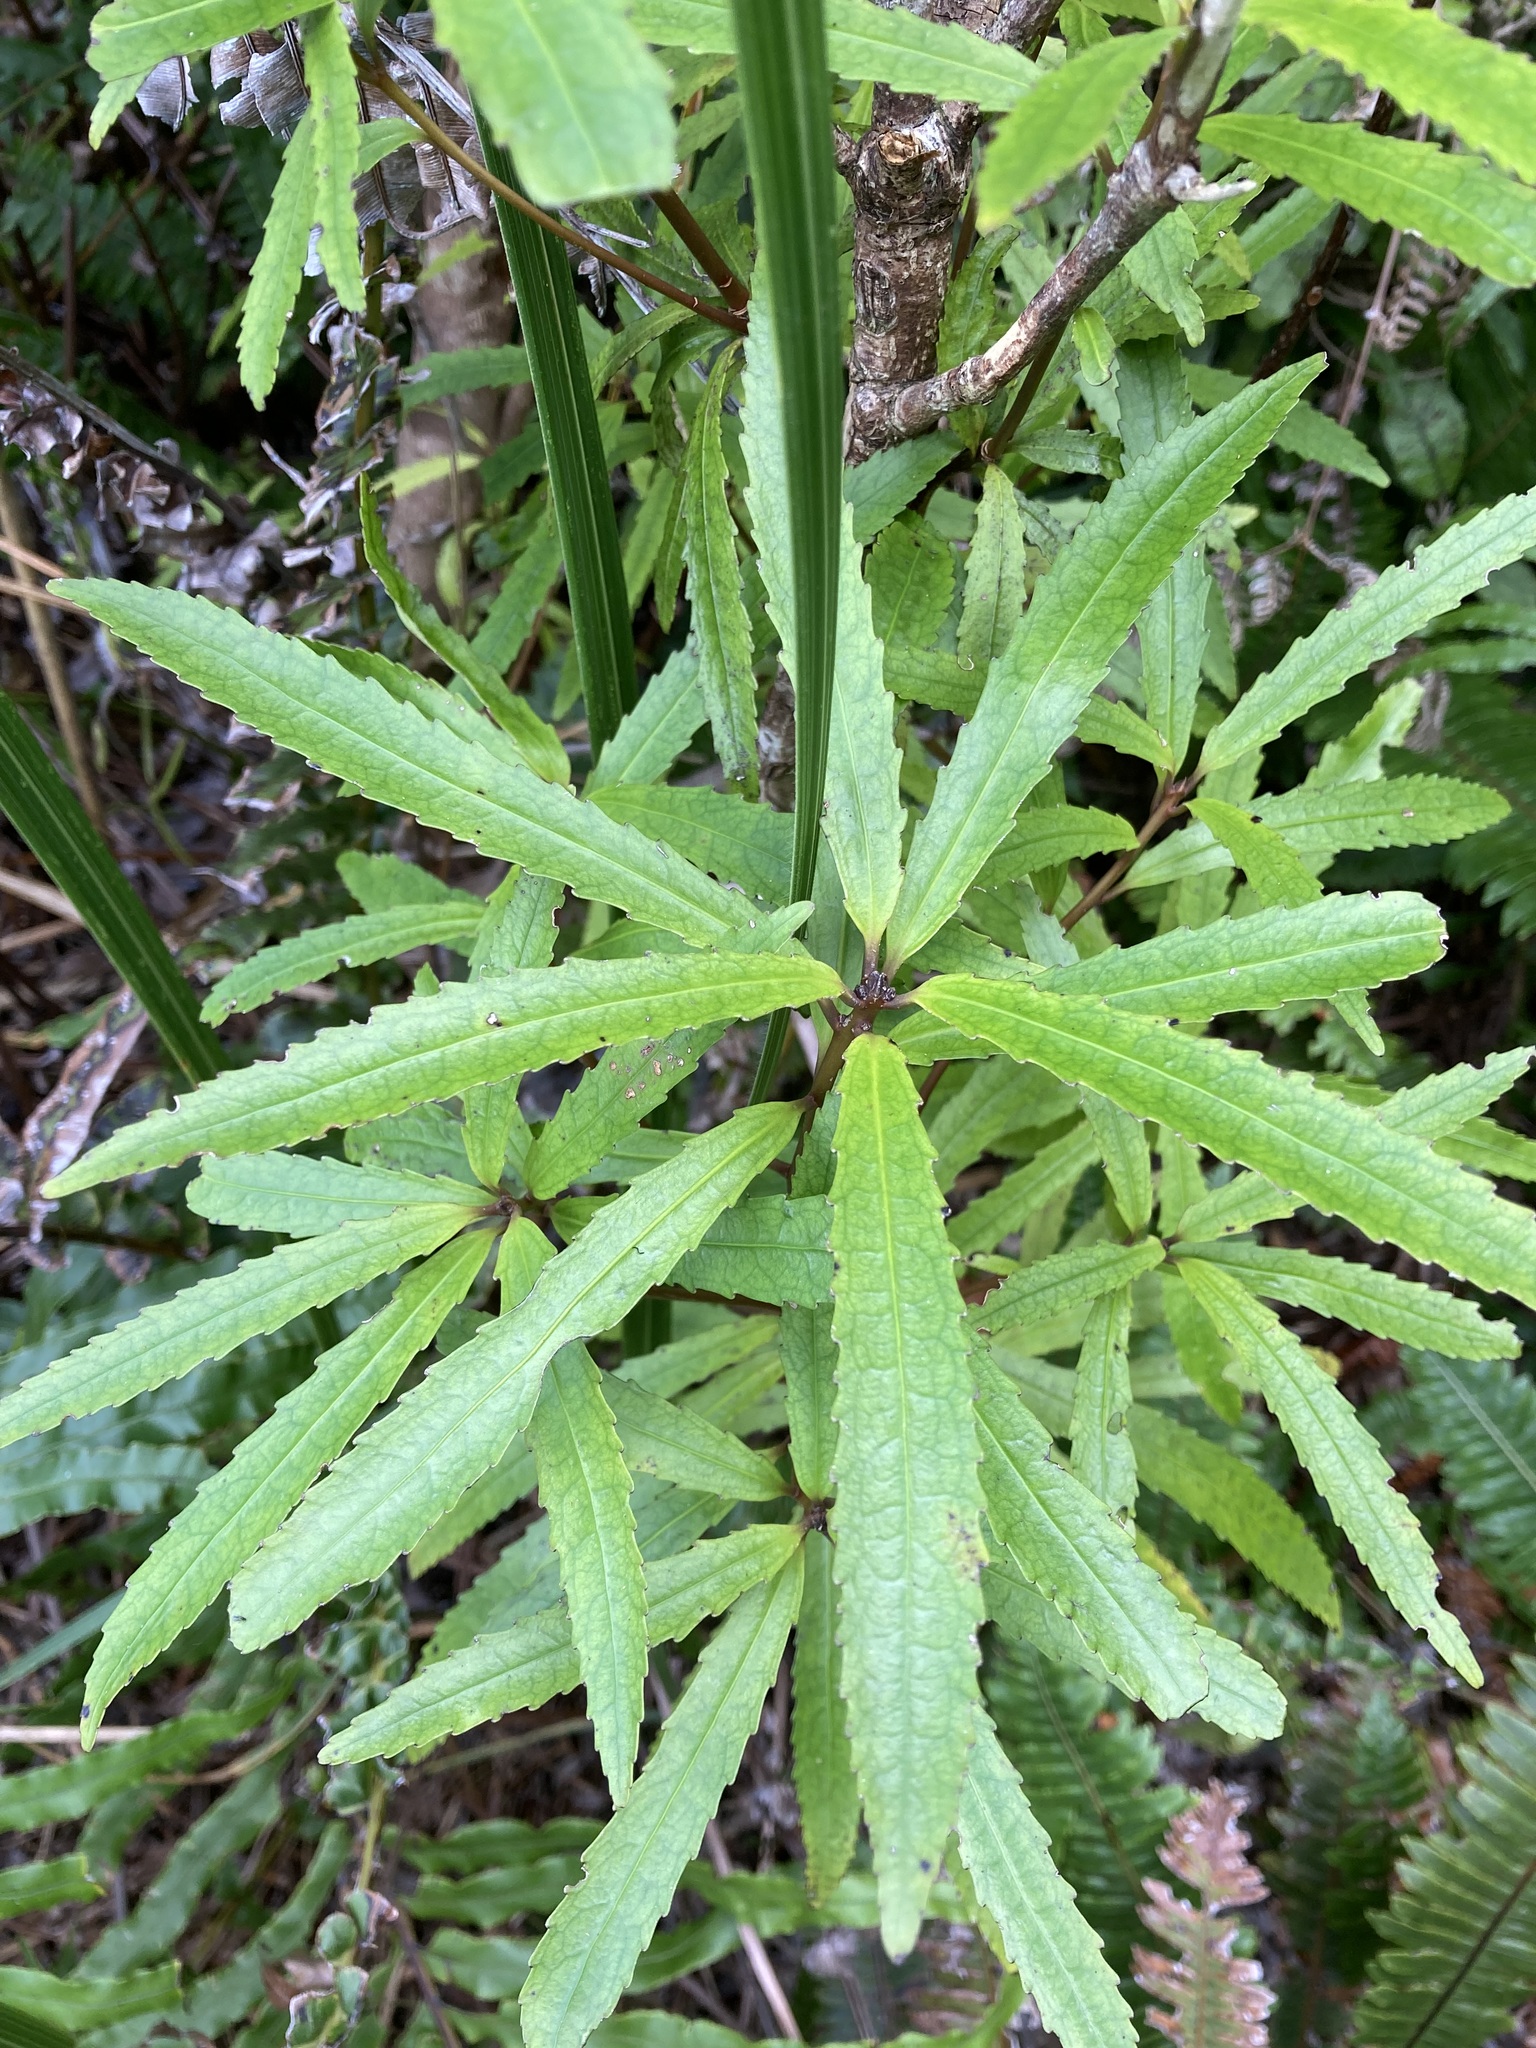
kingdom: Plantae
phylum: Tracheophyta
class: Magnoliopsida
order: Crossosomatales
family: Ixerbaceae
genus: Ixerba
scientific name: Ixerba brexioides
